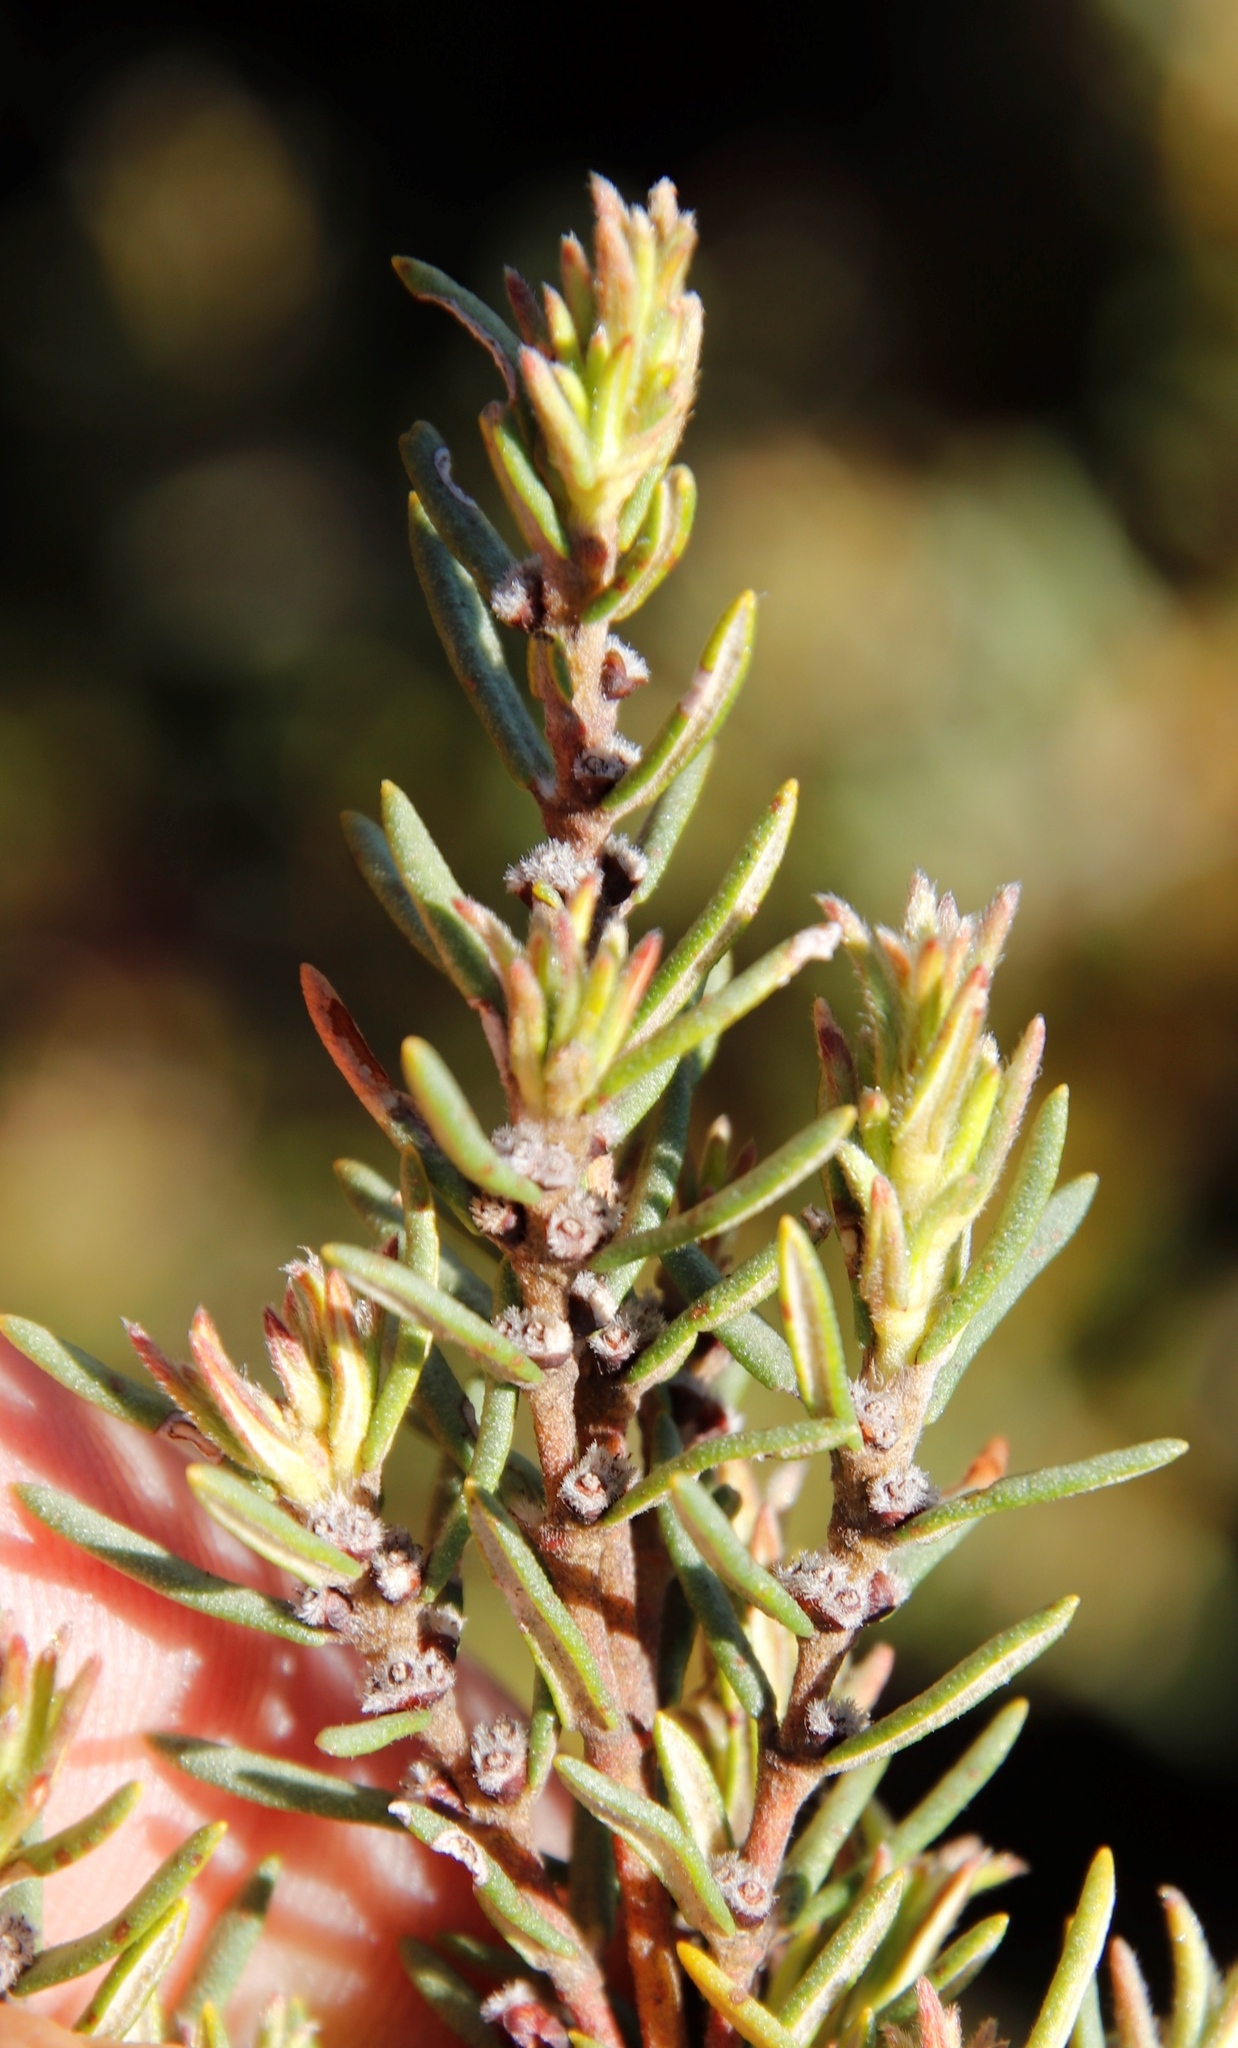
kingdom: Plantae
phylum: Tracheophyta
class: Magnoliopsida
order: Cornales
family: Grubbiaceae
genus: Grubbia
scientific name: Grubbia rosmarinifolia
